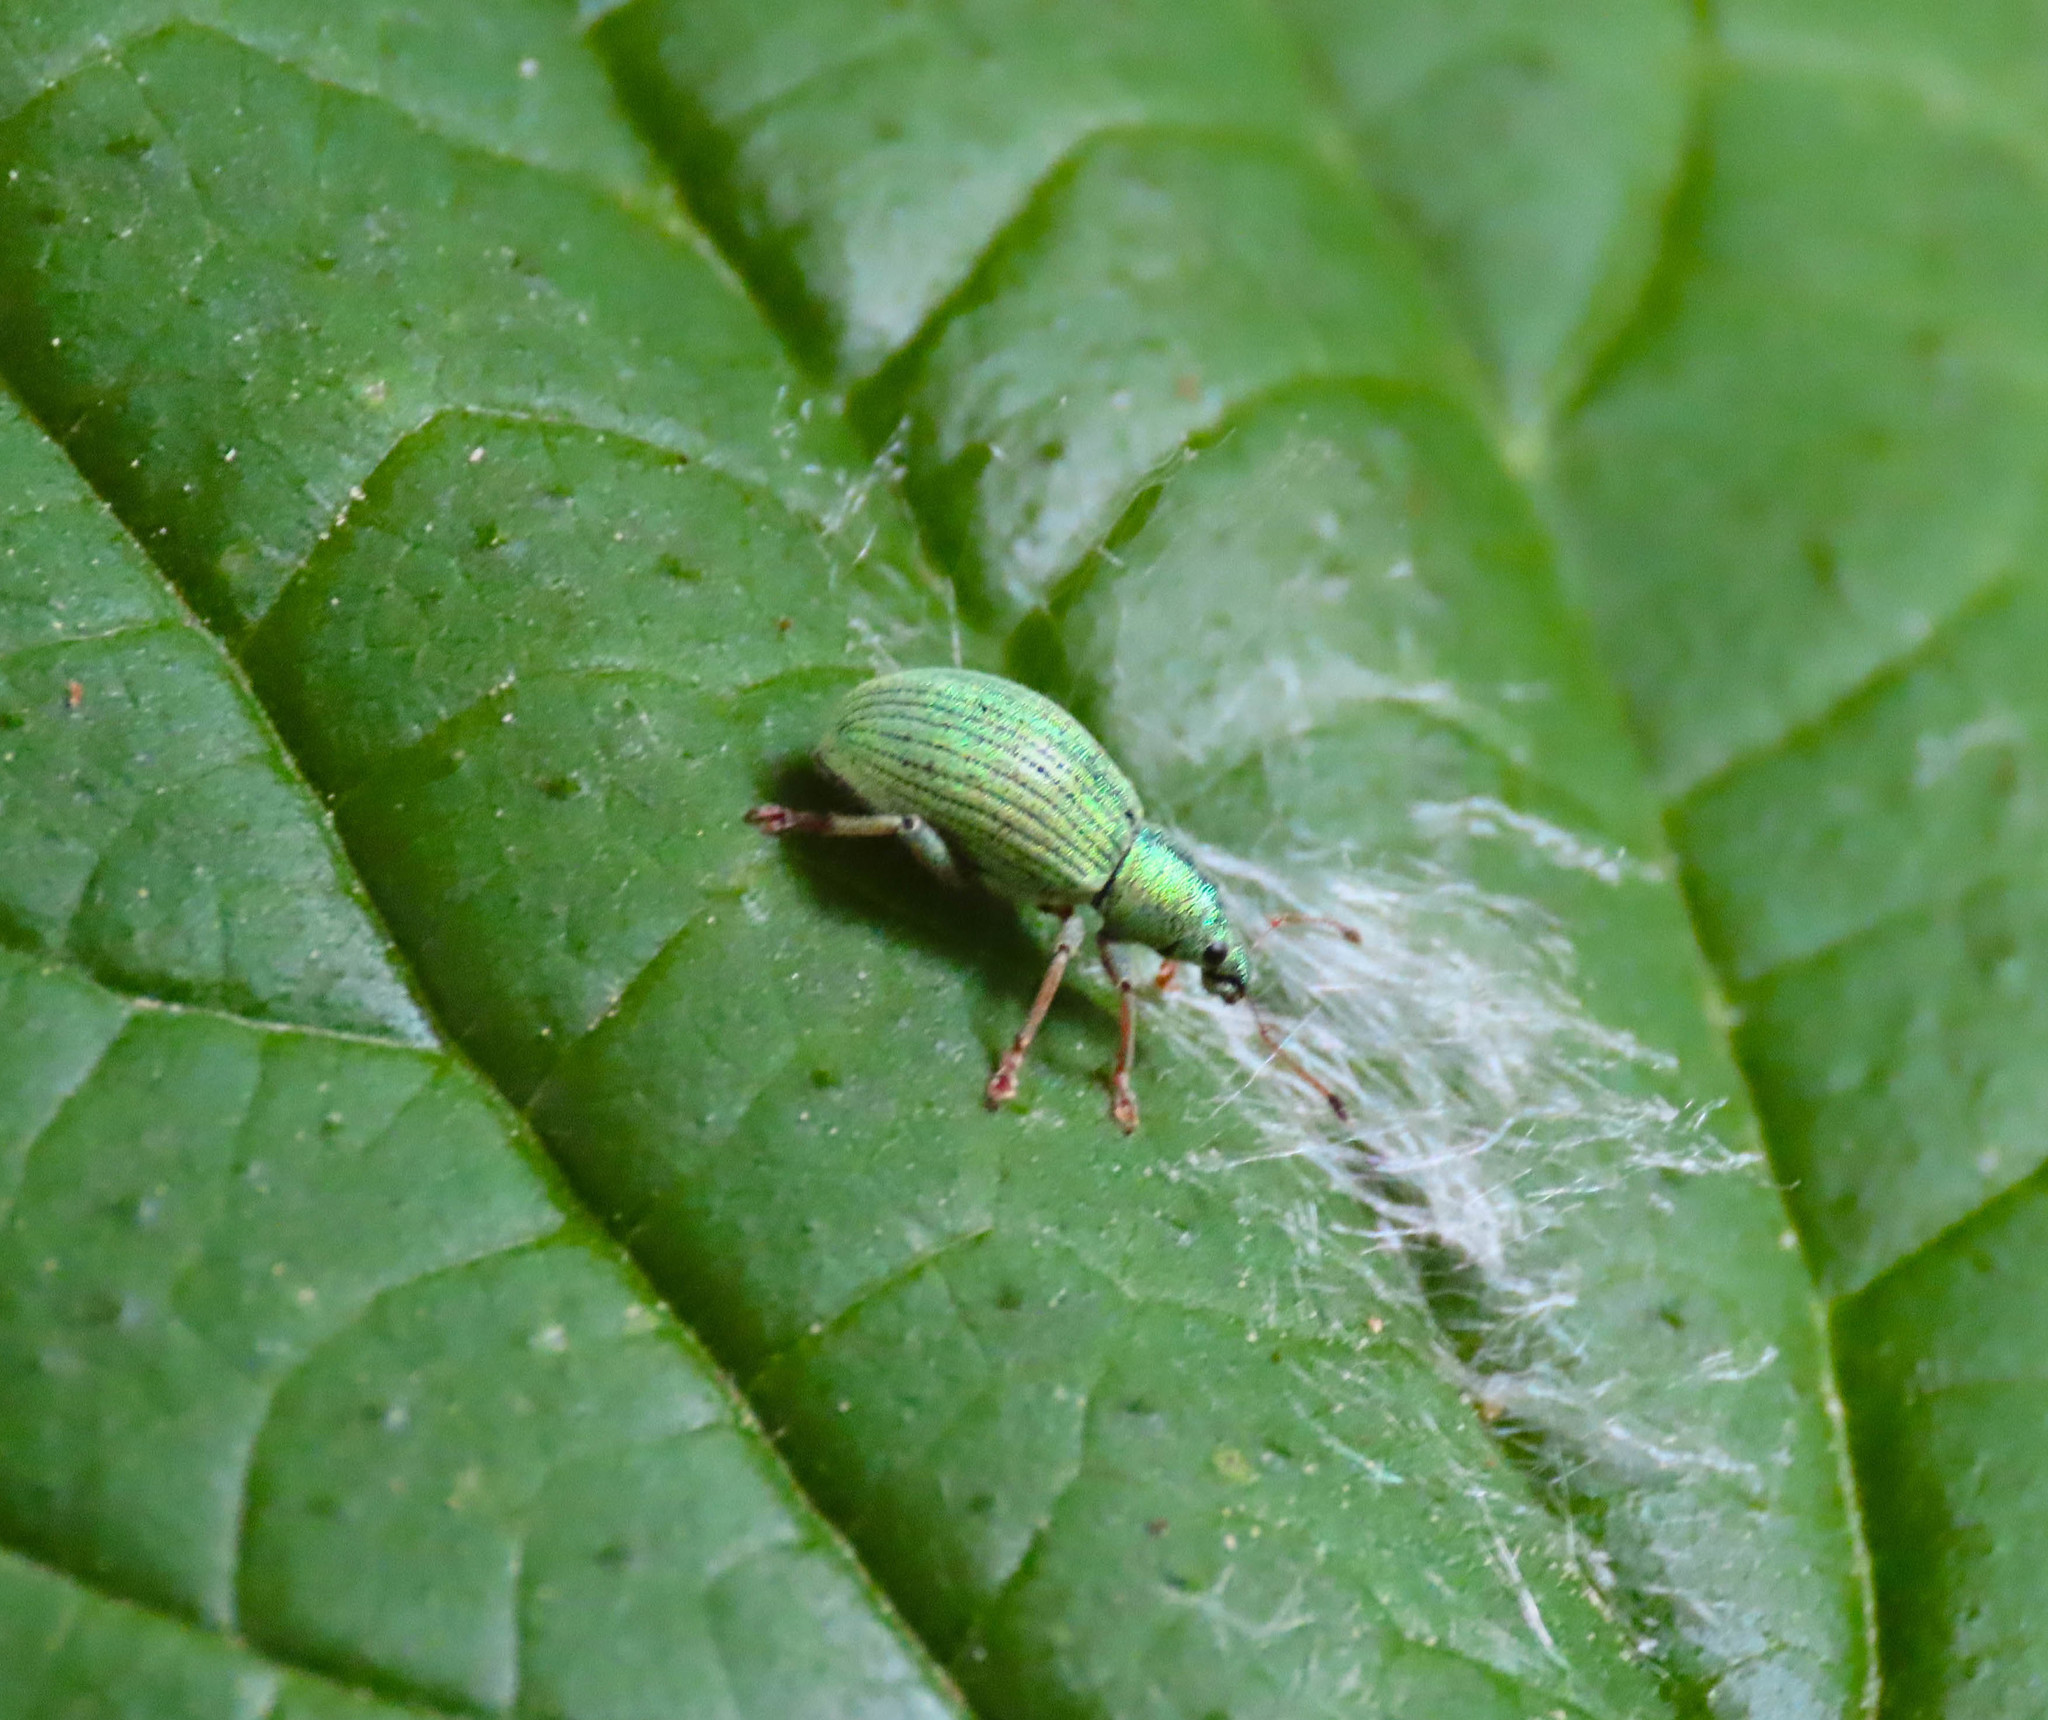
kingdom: Animalia
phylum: Arthropoda
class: Insecta
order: Coleoptera
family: Curculionidae
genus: Polydrusus
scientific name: Polydrusus amplicollis
